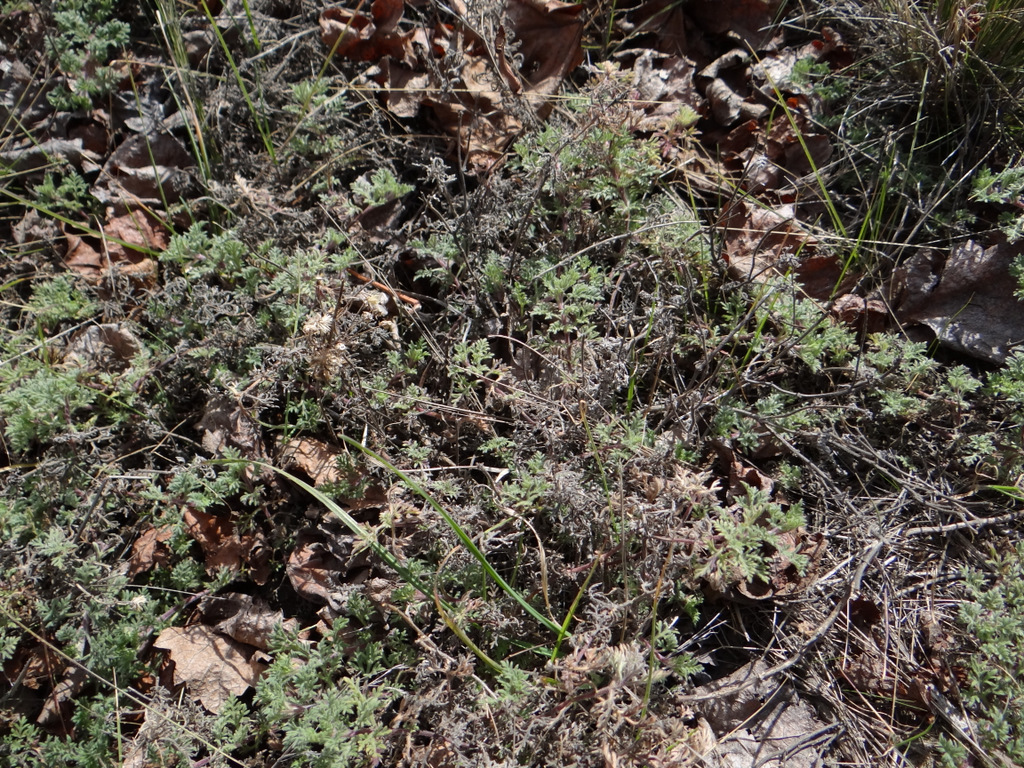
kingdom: Plantae
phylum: Tracheophyta
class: Magnoliopsida
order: Asterales
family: Asteraceae
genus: Cotula
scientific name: Cotula australis
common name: Australian waterbuttons
